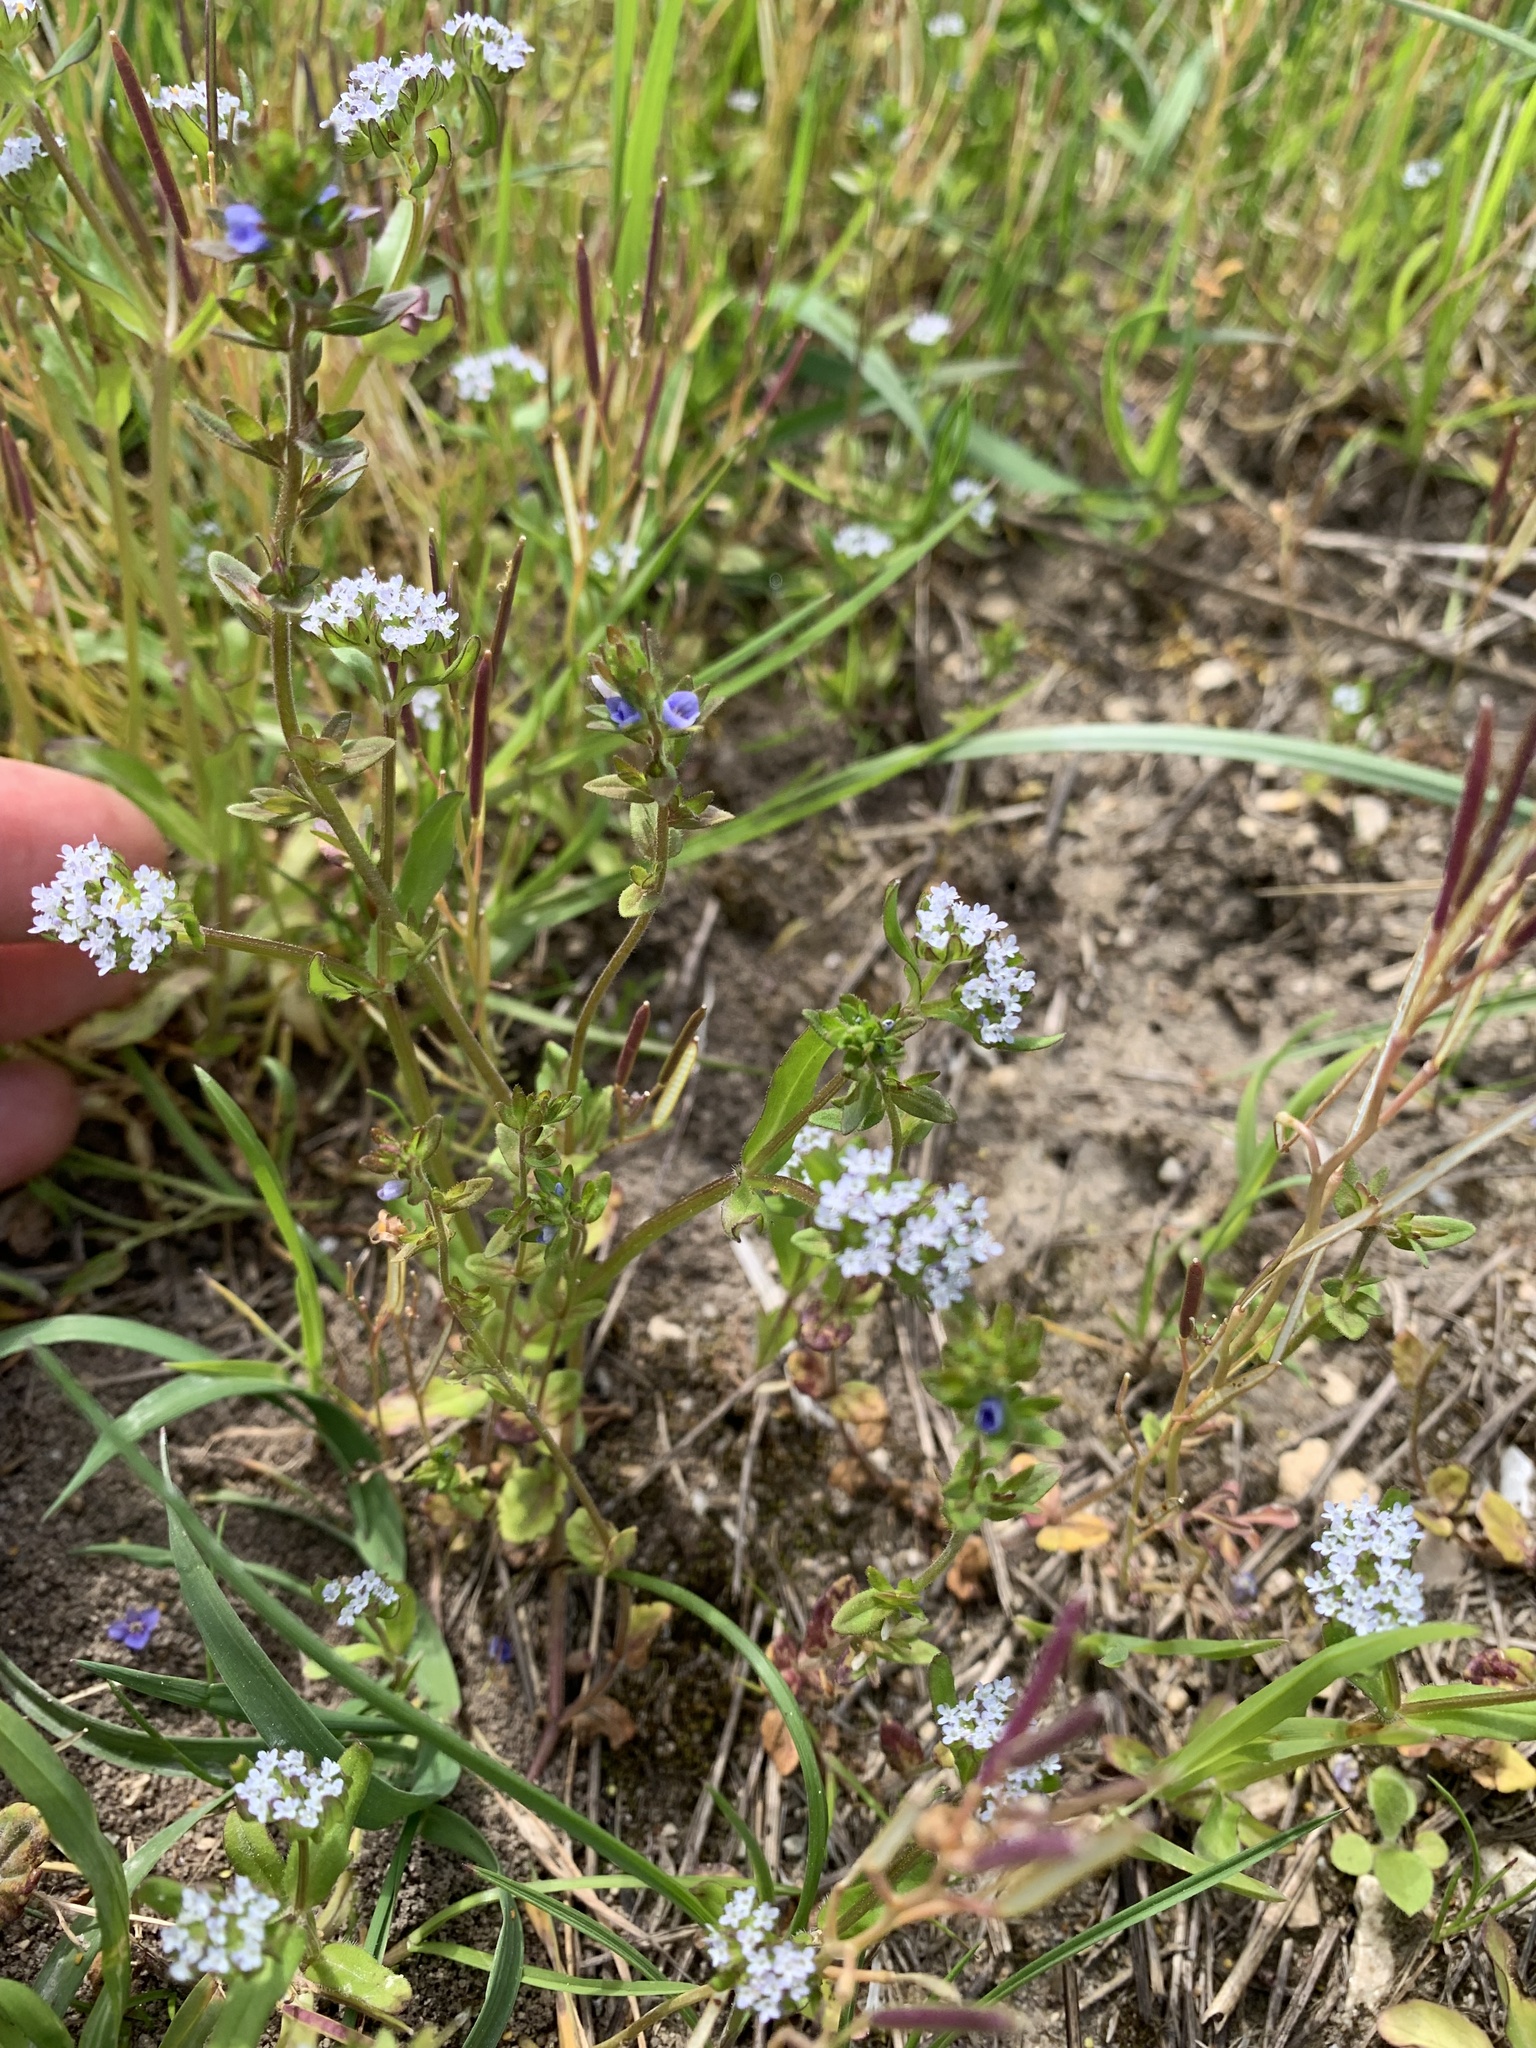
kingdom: Plantae
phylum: Tracheophyta
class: Magnoliopsida
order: Lamiales
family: Plantaginaceae
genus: Veronica
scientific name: Veronica arvensis
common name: Corn speedwell
